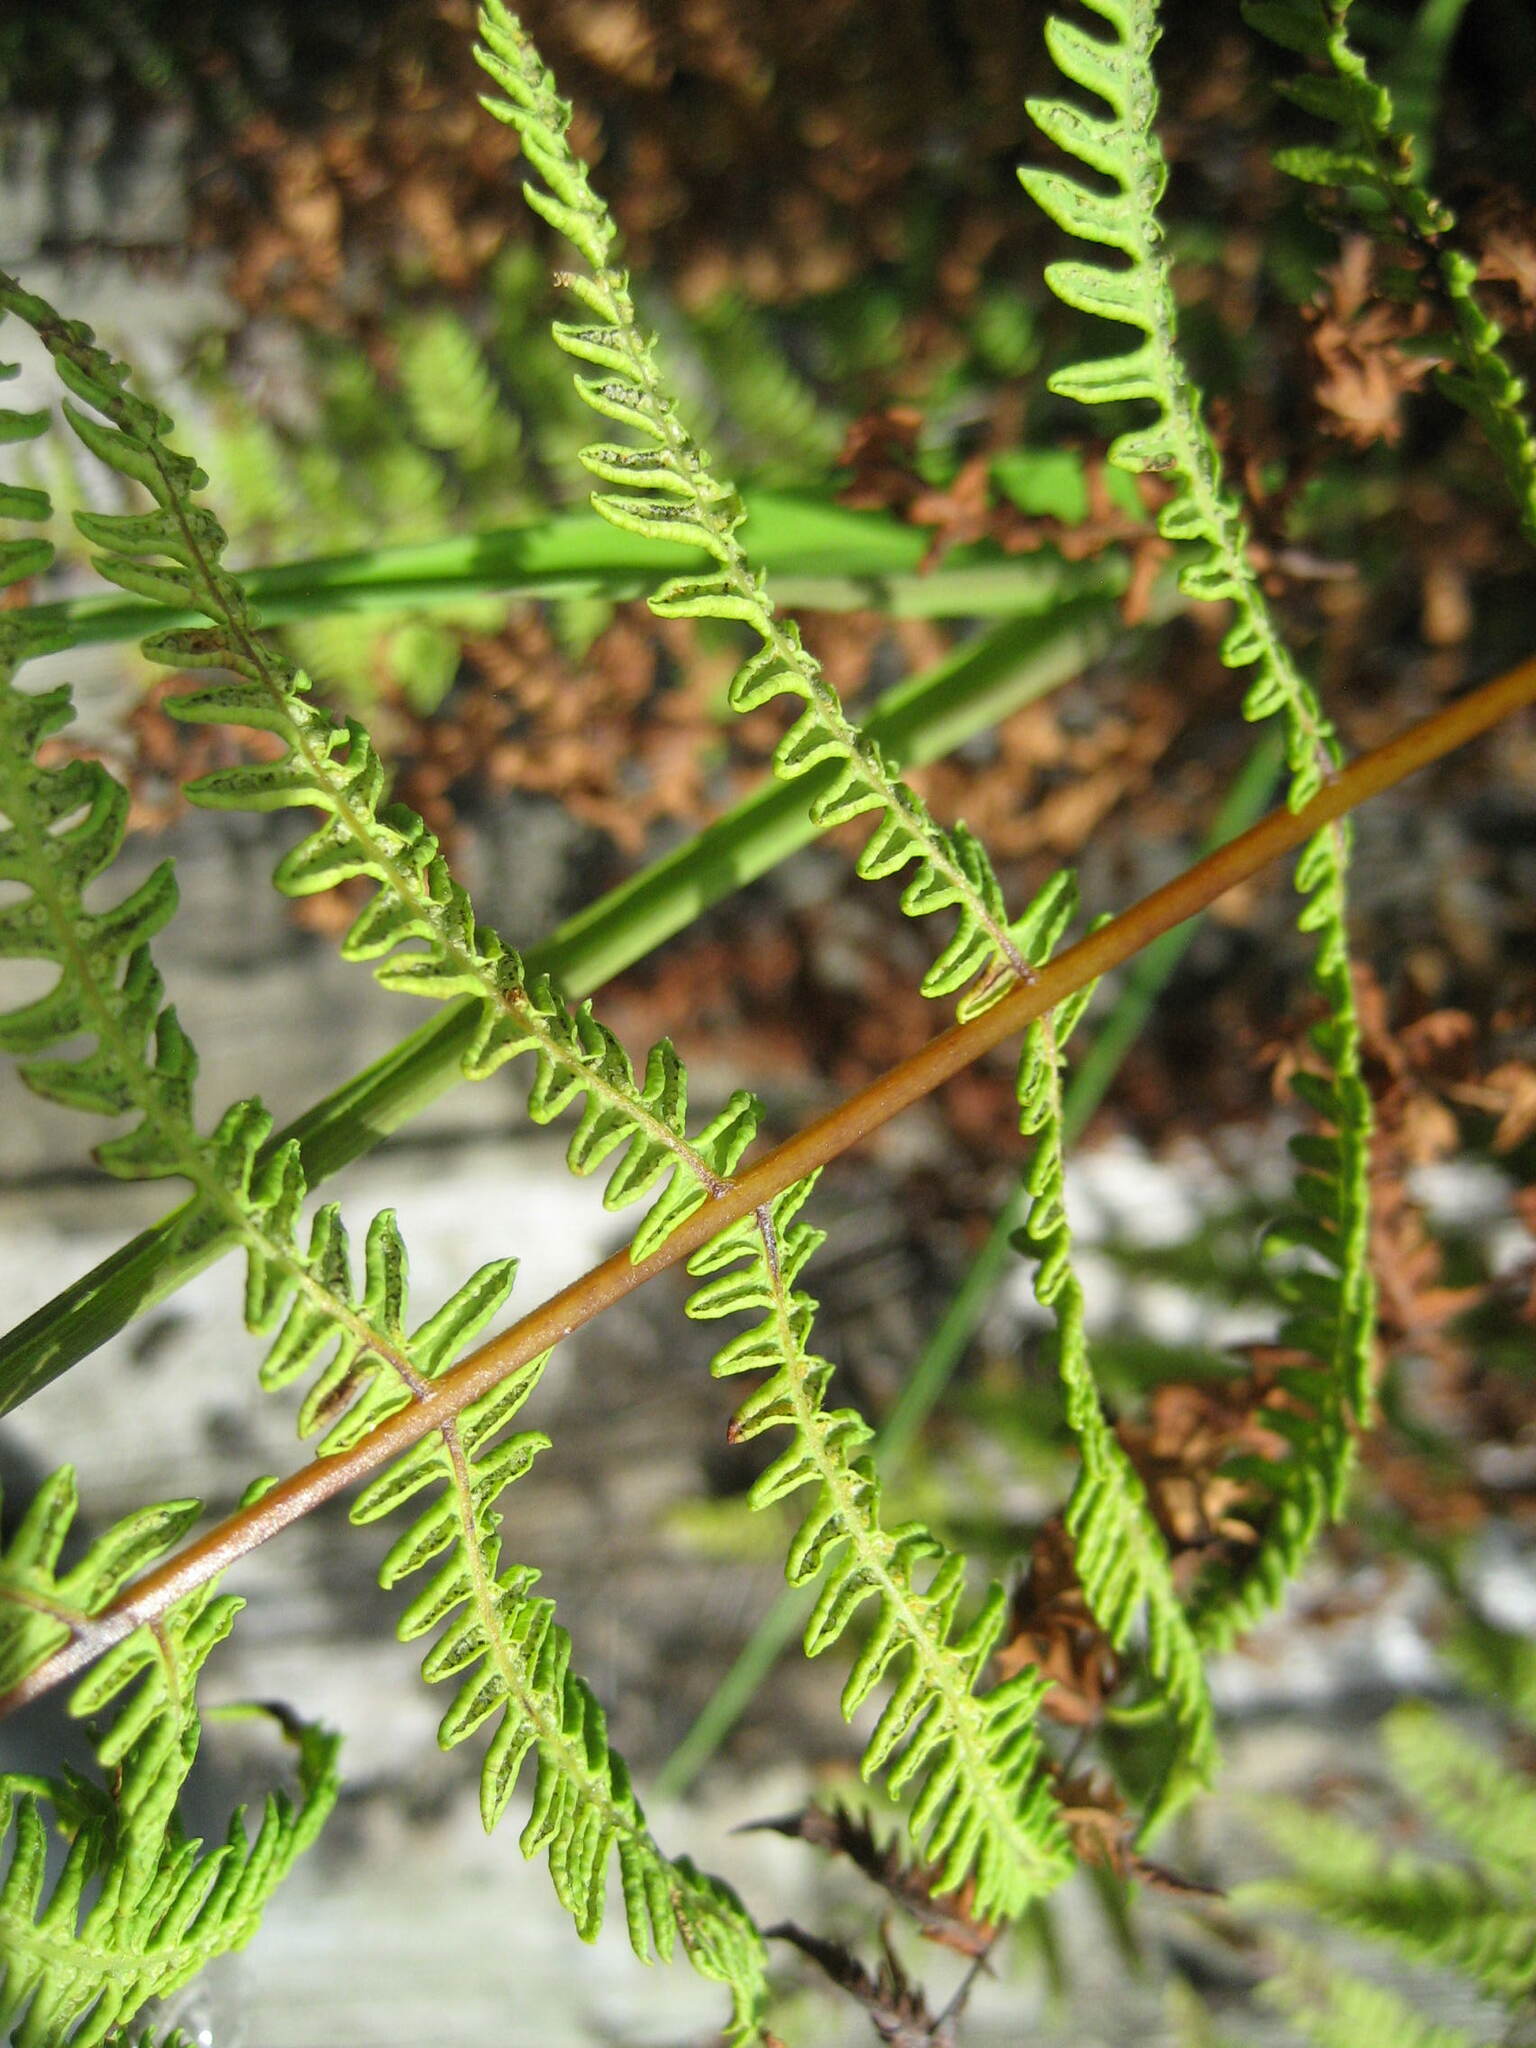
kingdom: Plantae
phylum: Tracheophyta
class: Polypodiopsida
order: Polypodiales
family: Thelypteridaceae
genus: Thelypteris
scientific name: Thelypteris palustris
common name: Marsh fern
